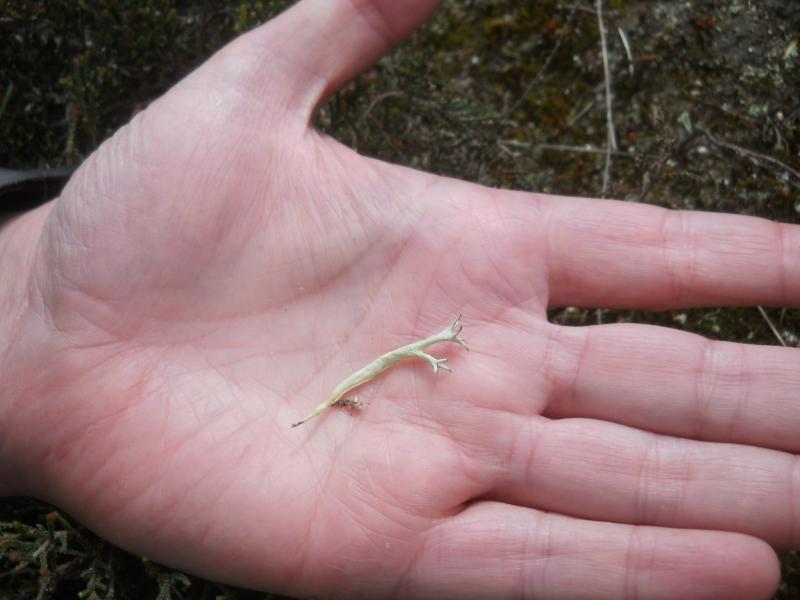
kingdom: Fungi
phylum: Ascomycota
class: Lecanoromycetes
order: Lecanorales
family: Cladoniaceae
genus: Cladonia
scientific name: Cladonia uncialis
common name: Thorn lichen
